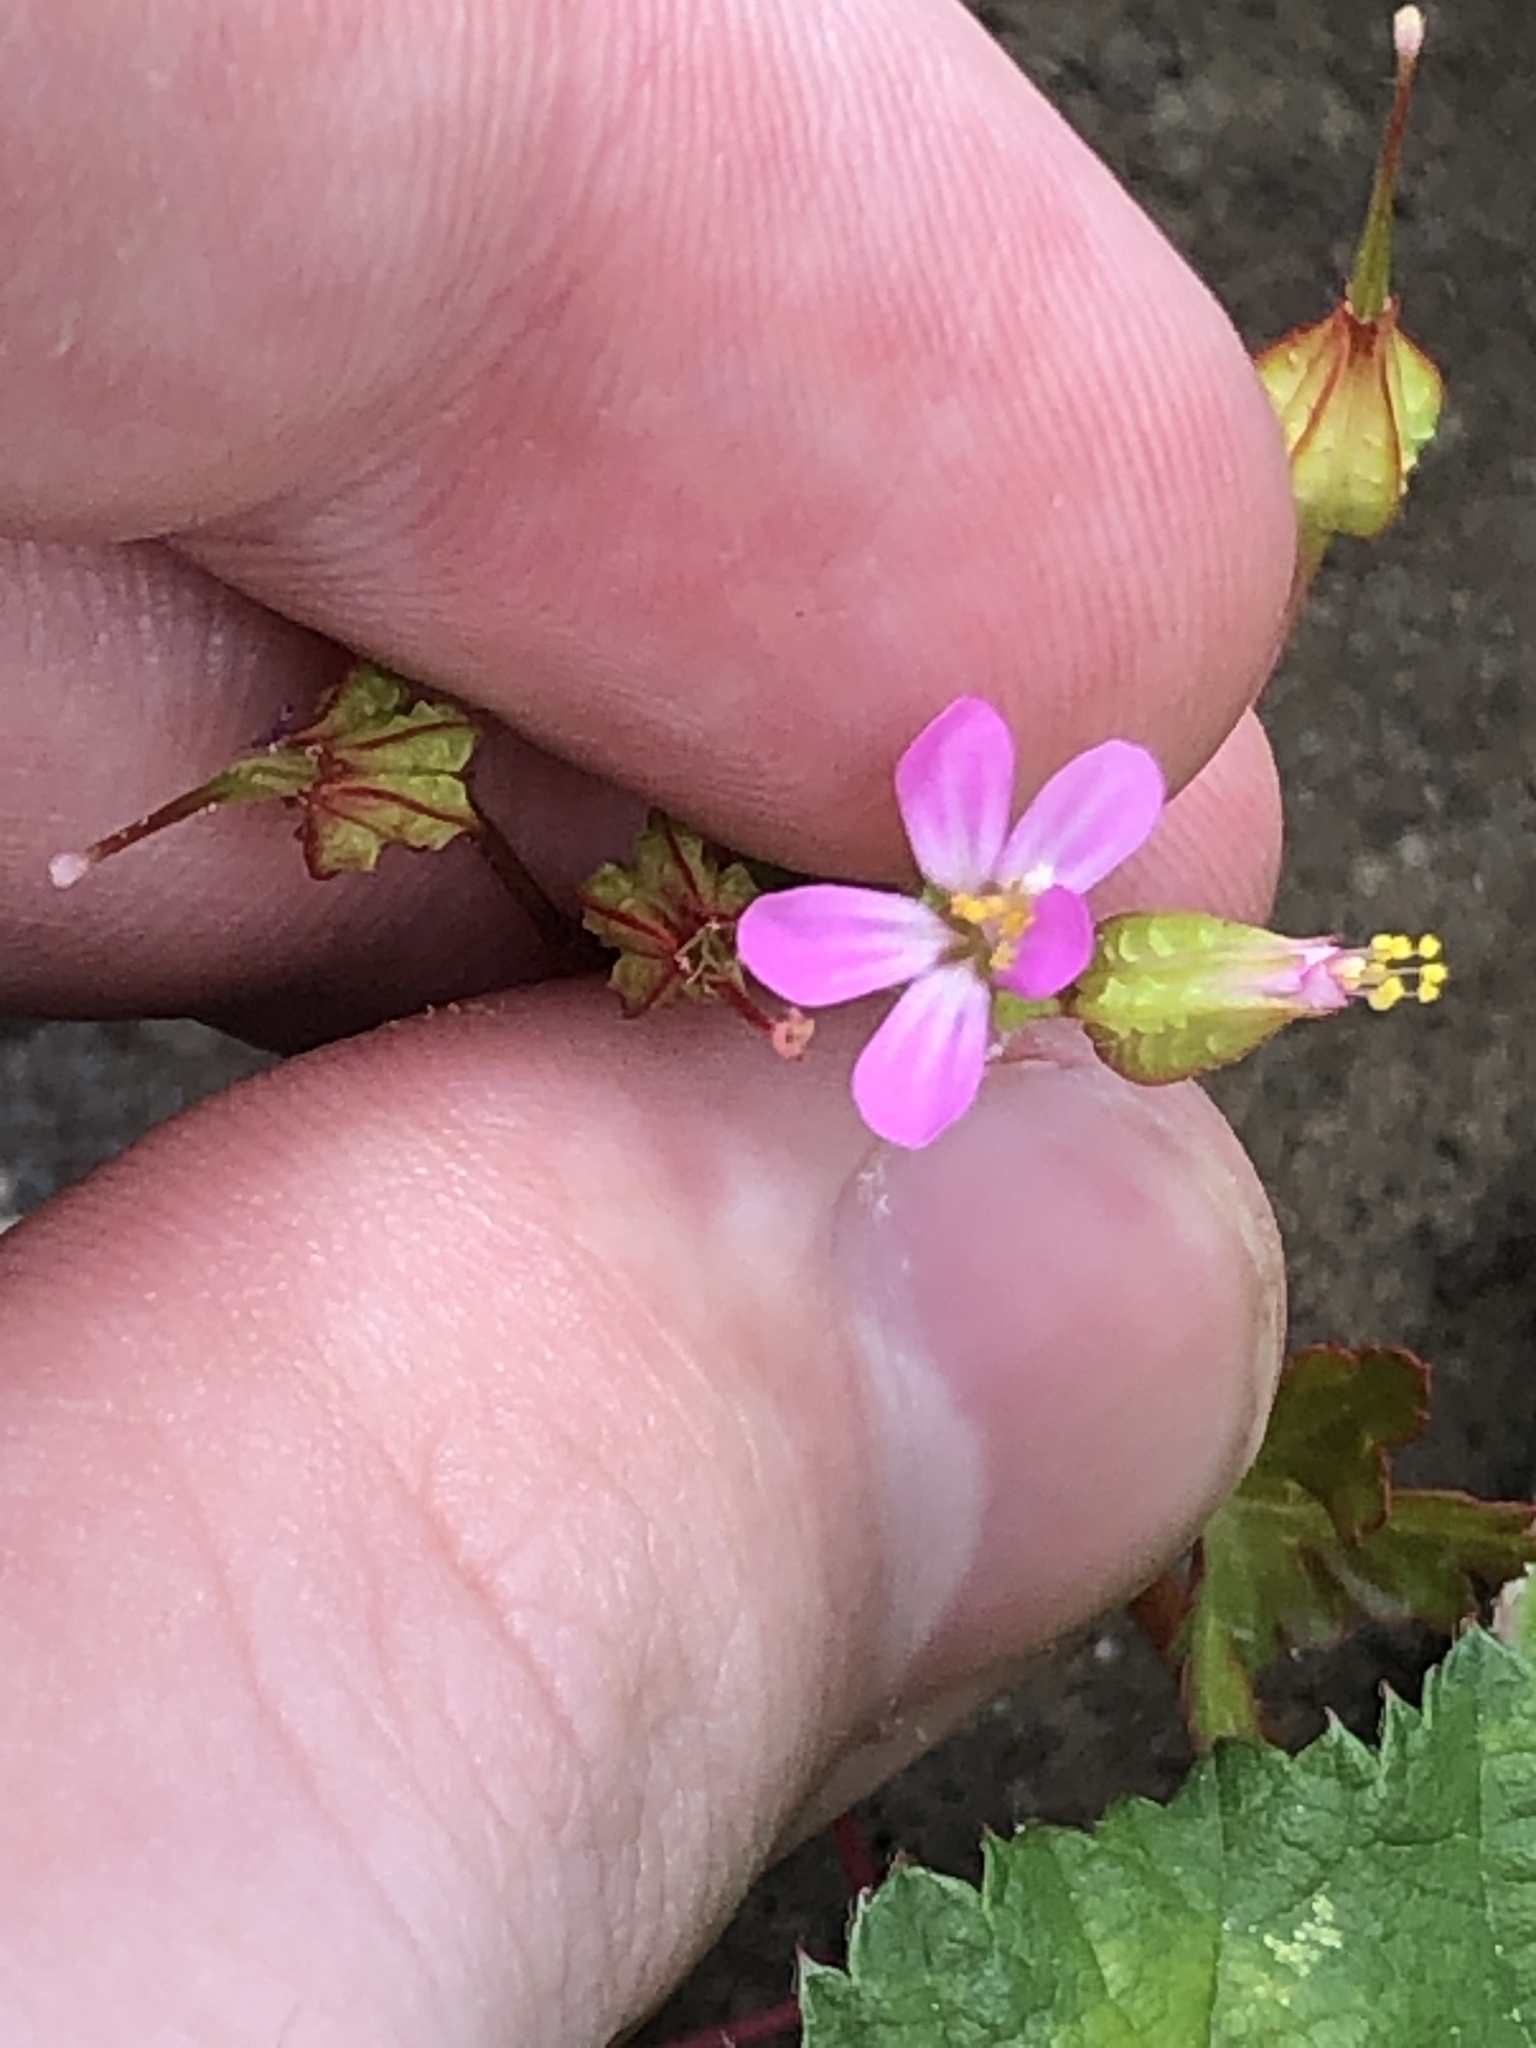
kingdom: Plantae
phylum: Tracheophyta
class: Magnoliopsida
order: Geraniales
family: Geraniaceae
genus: Geranium
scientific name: Geranium lucidum
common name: Shining crane's-bill
